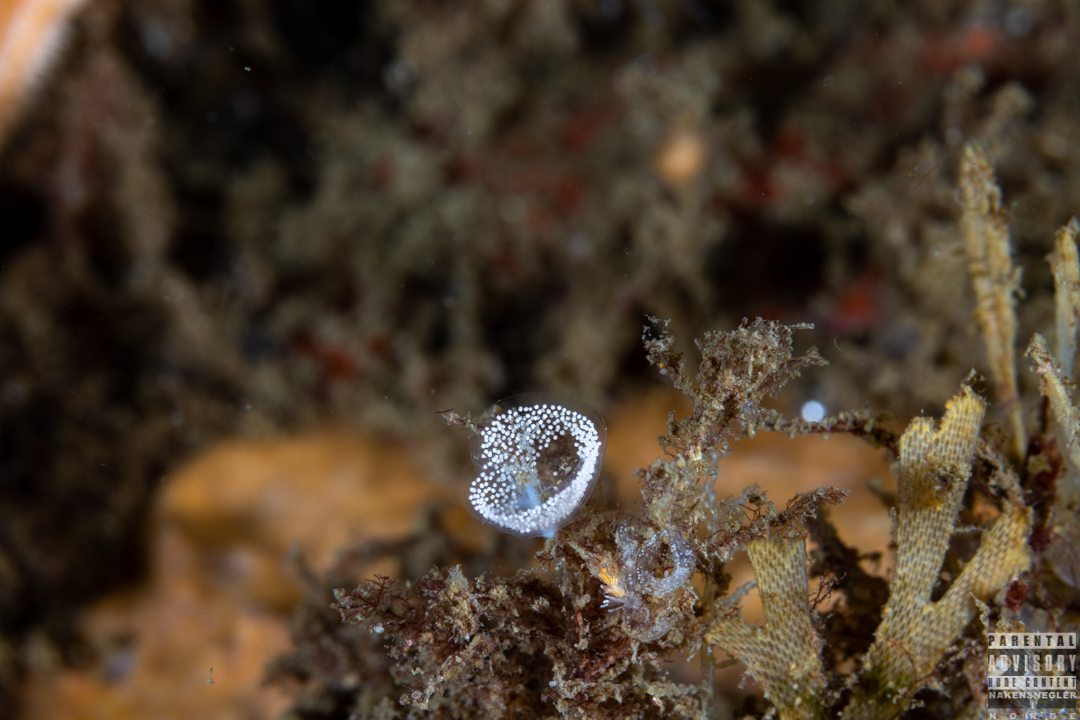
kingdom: Animalia
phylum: Mollusca
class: Gastropoda
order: Nudibranchia
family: Eubranchidae
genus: Eubranchus
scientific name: Eubranchus tricolor
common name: Painted balloon aeolis
